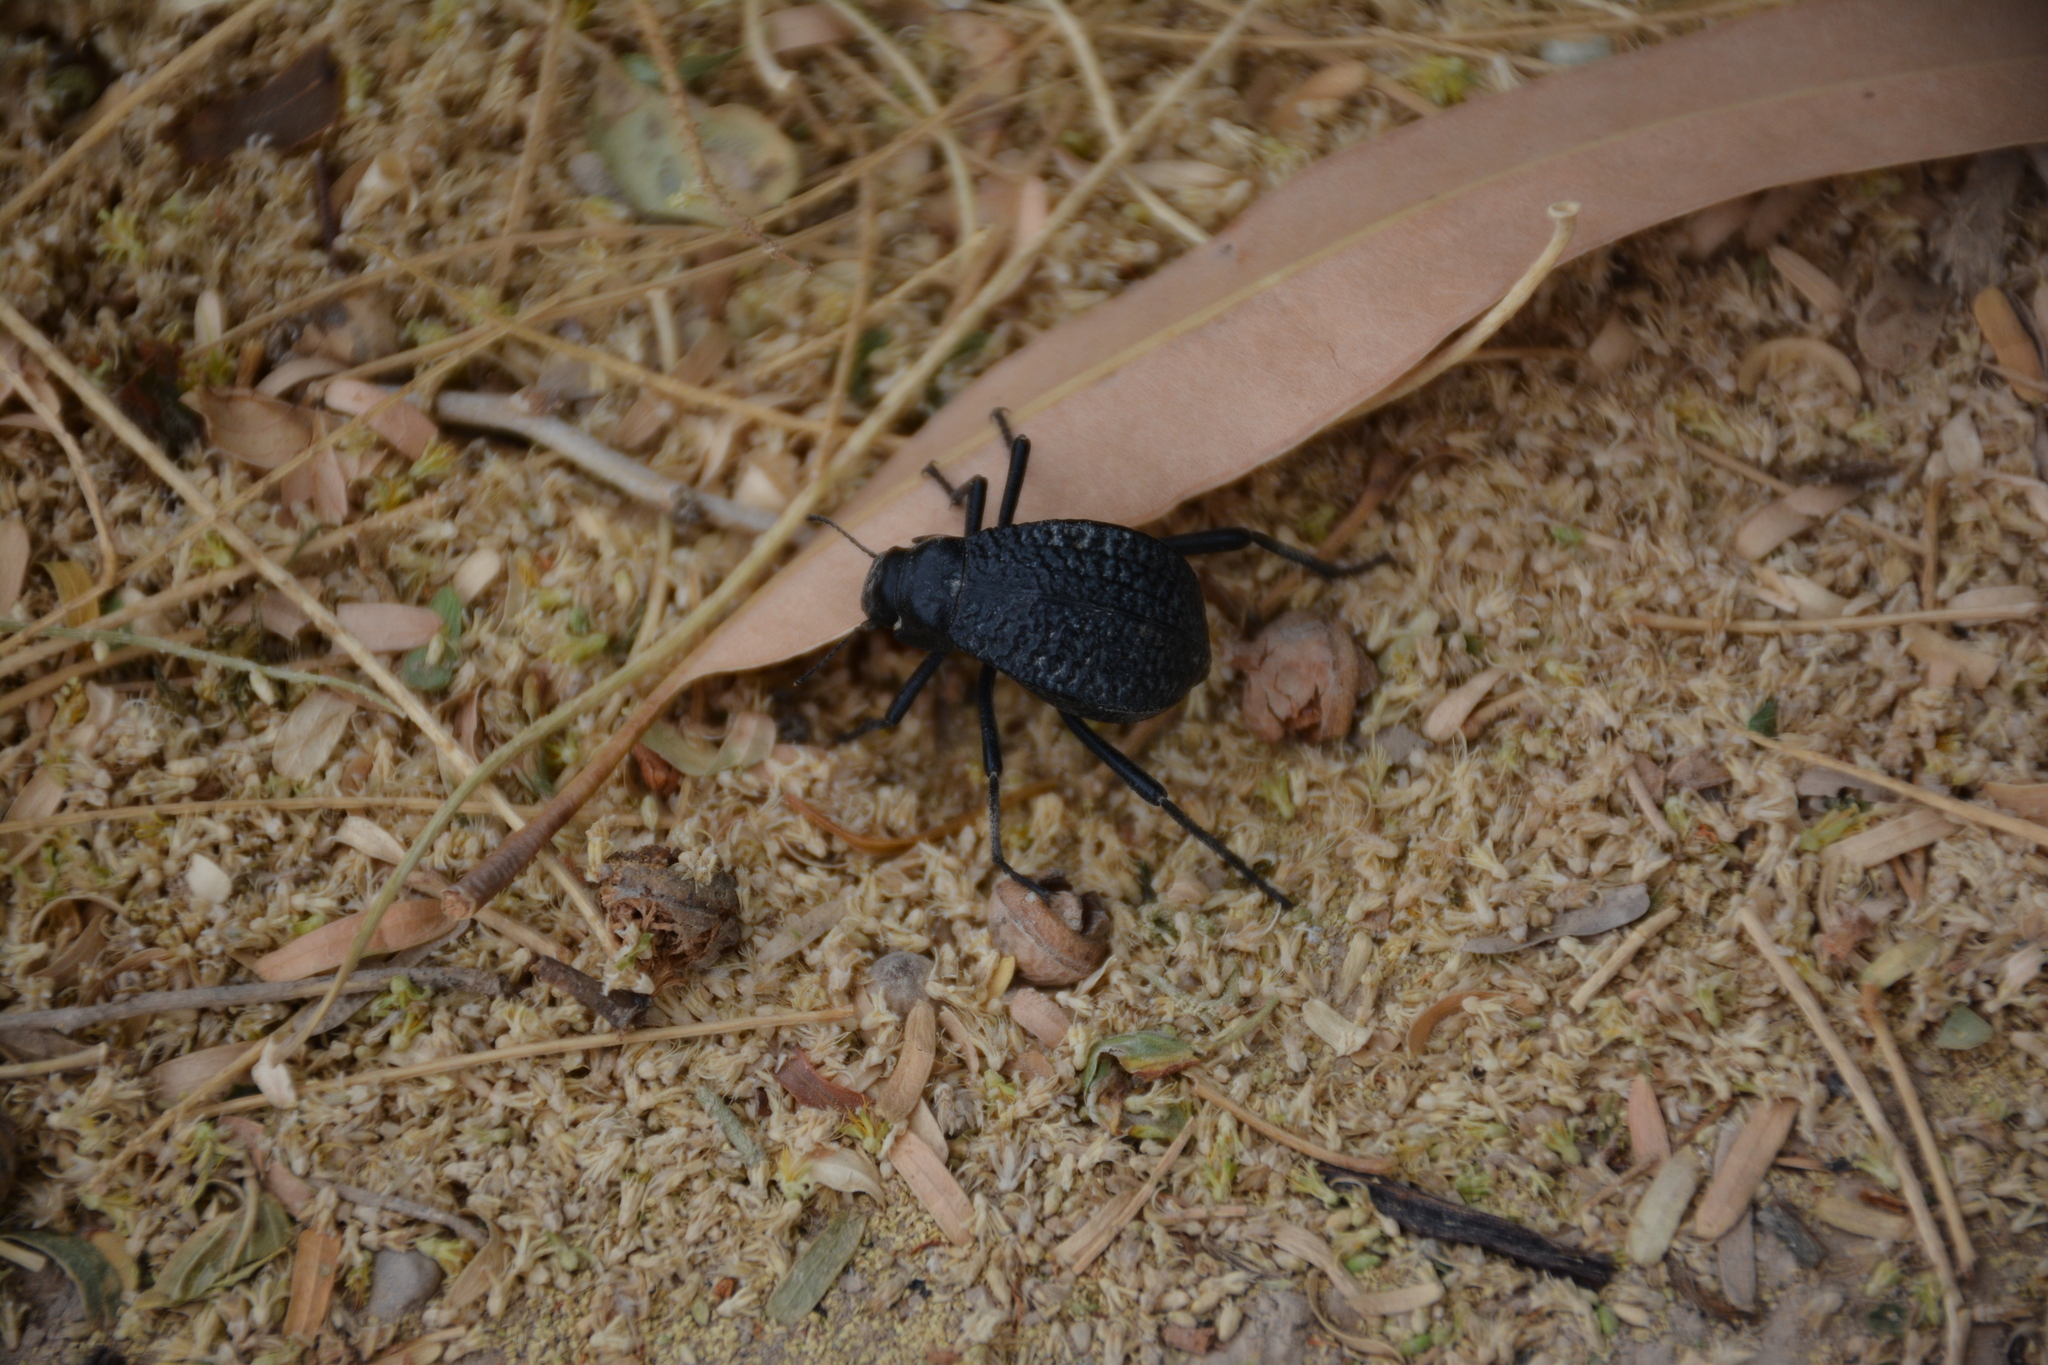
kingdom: Animalia
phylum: Arthropoda
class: Insecta
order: Coleoptera
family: Tenebrionidae
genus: Adesmia
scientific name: Adesmia cancellata
